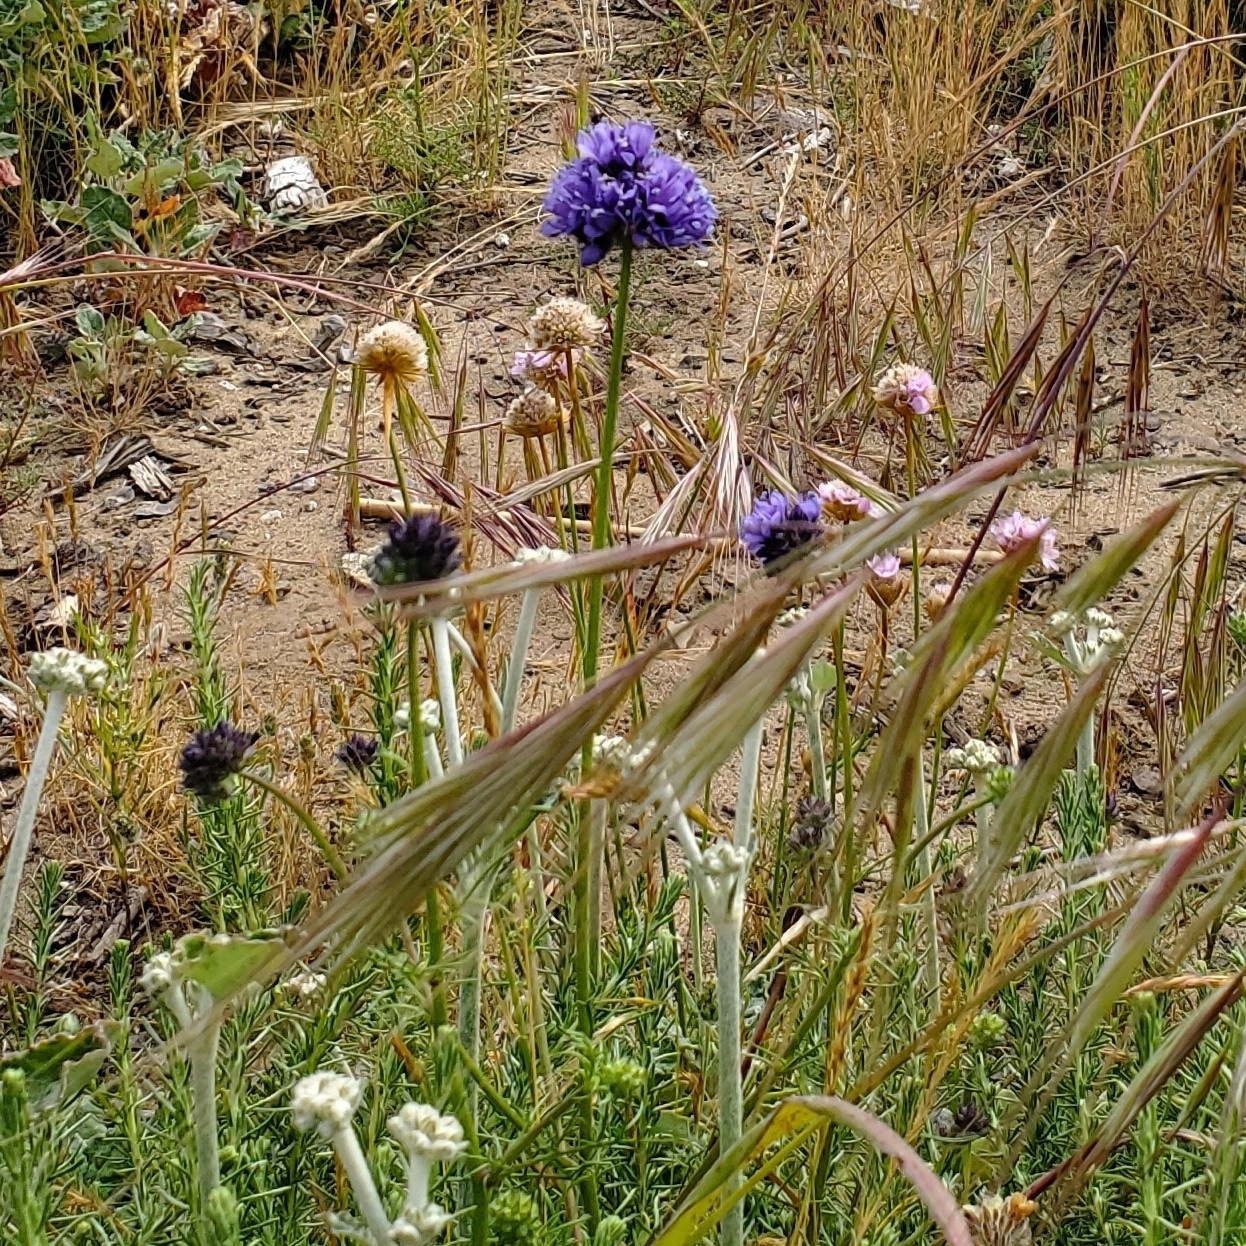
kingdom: Plantae
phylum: Tracheophyta
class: Magnoliopsida
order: Ericales
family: Polemoniaceae
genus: Gilia
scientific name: Gilia capitata
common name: Bluehead gilia
